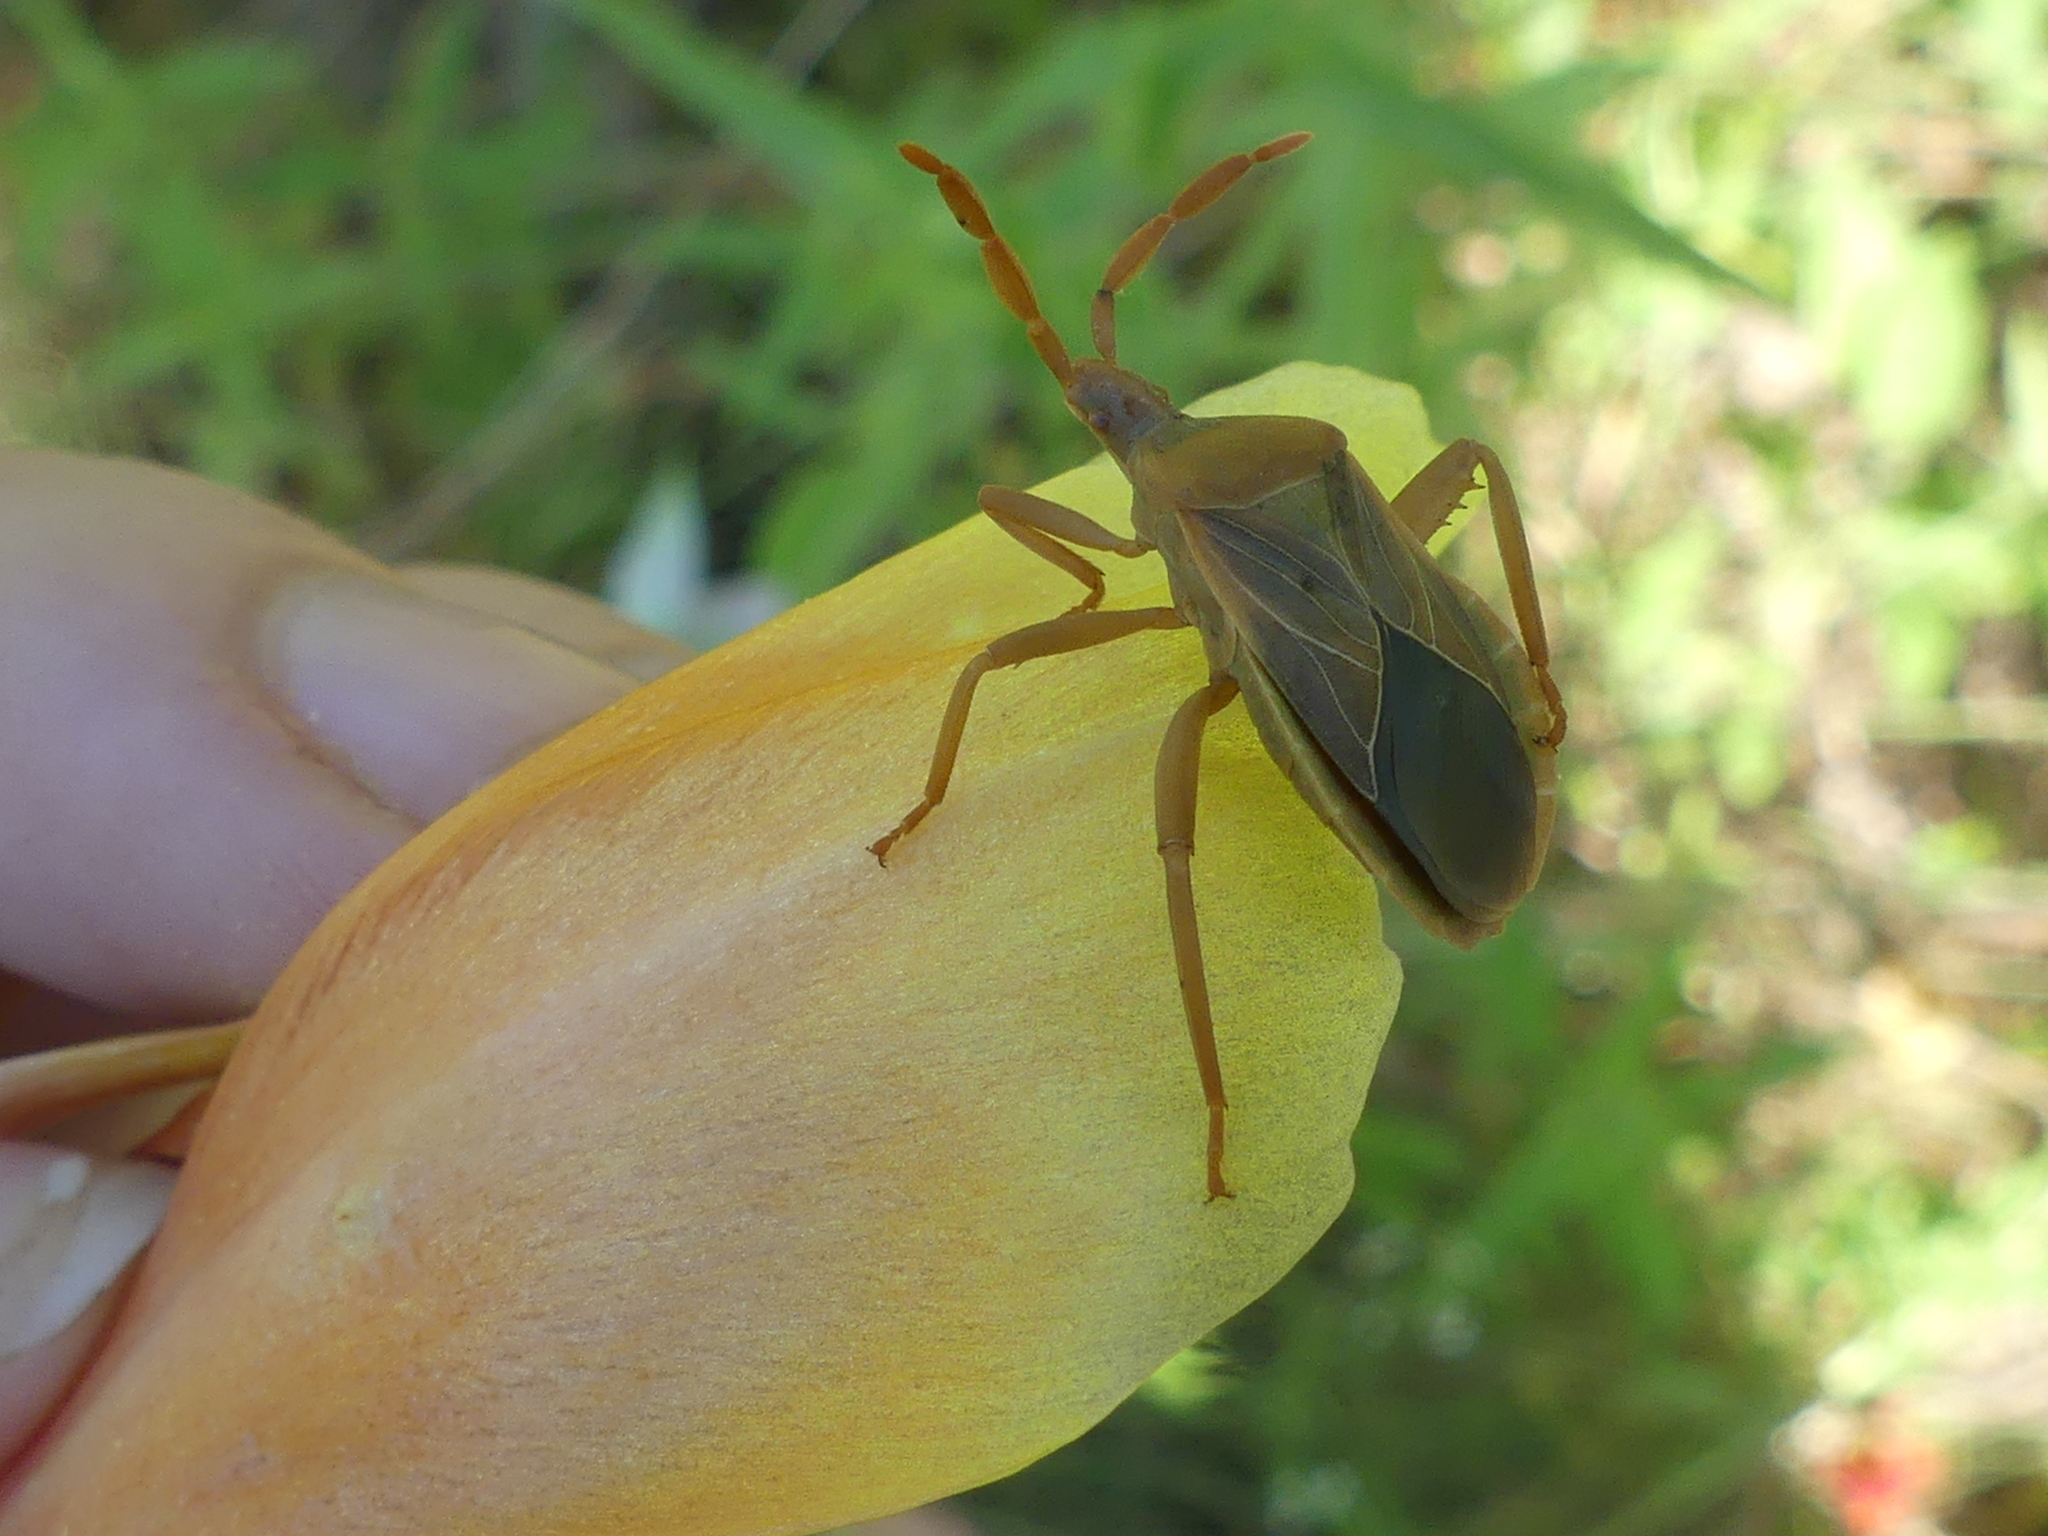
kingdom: Animalia
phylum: Arthropoda
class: Insecta
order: Hemiptera
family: Coreidae
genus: Chelinidea
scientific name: Chelinidea vittiger
